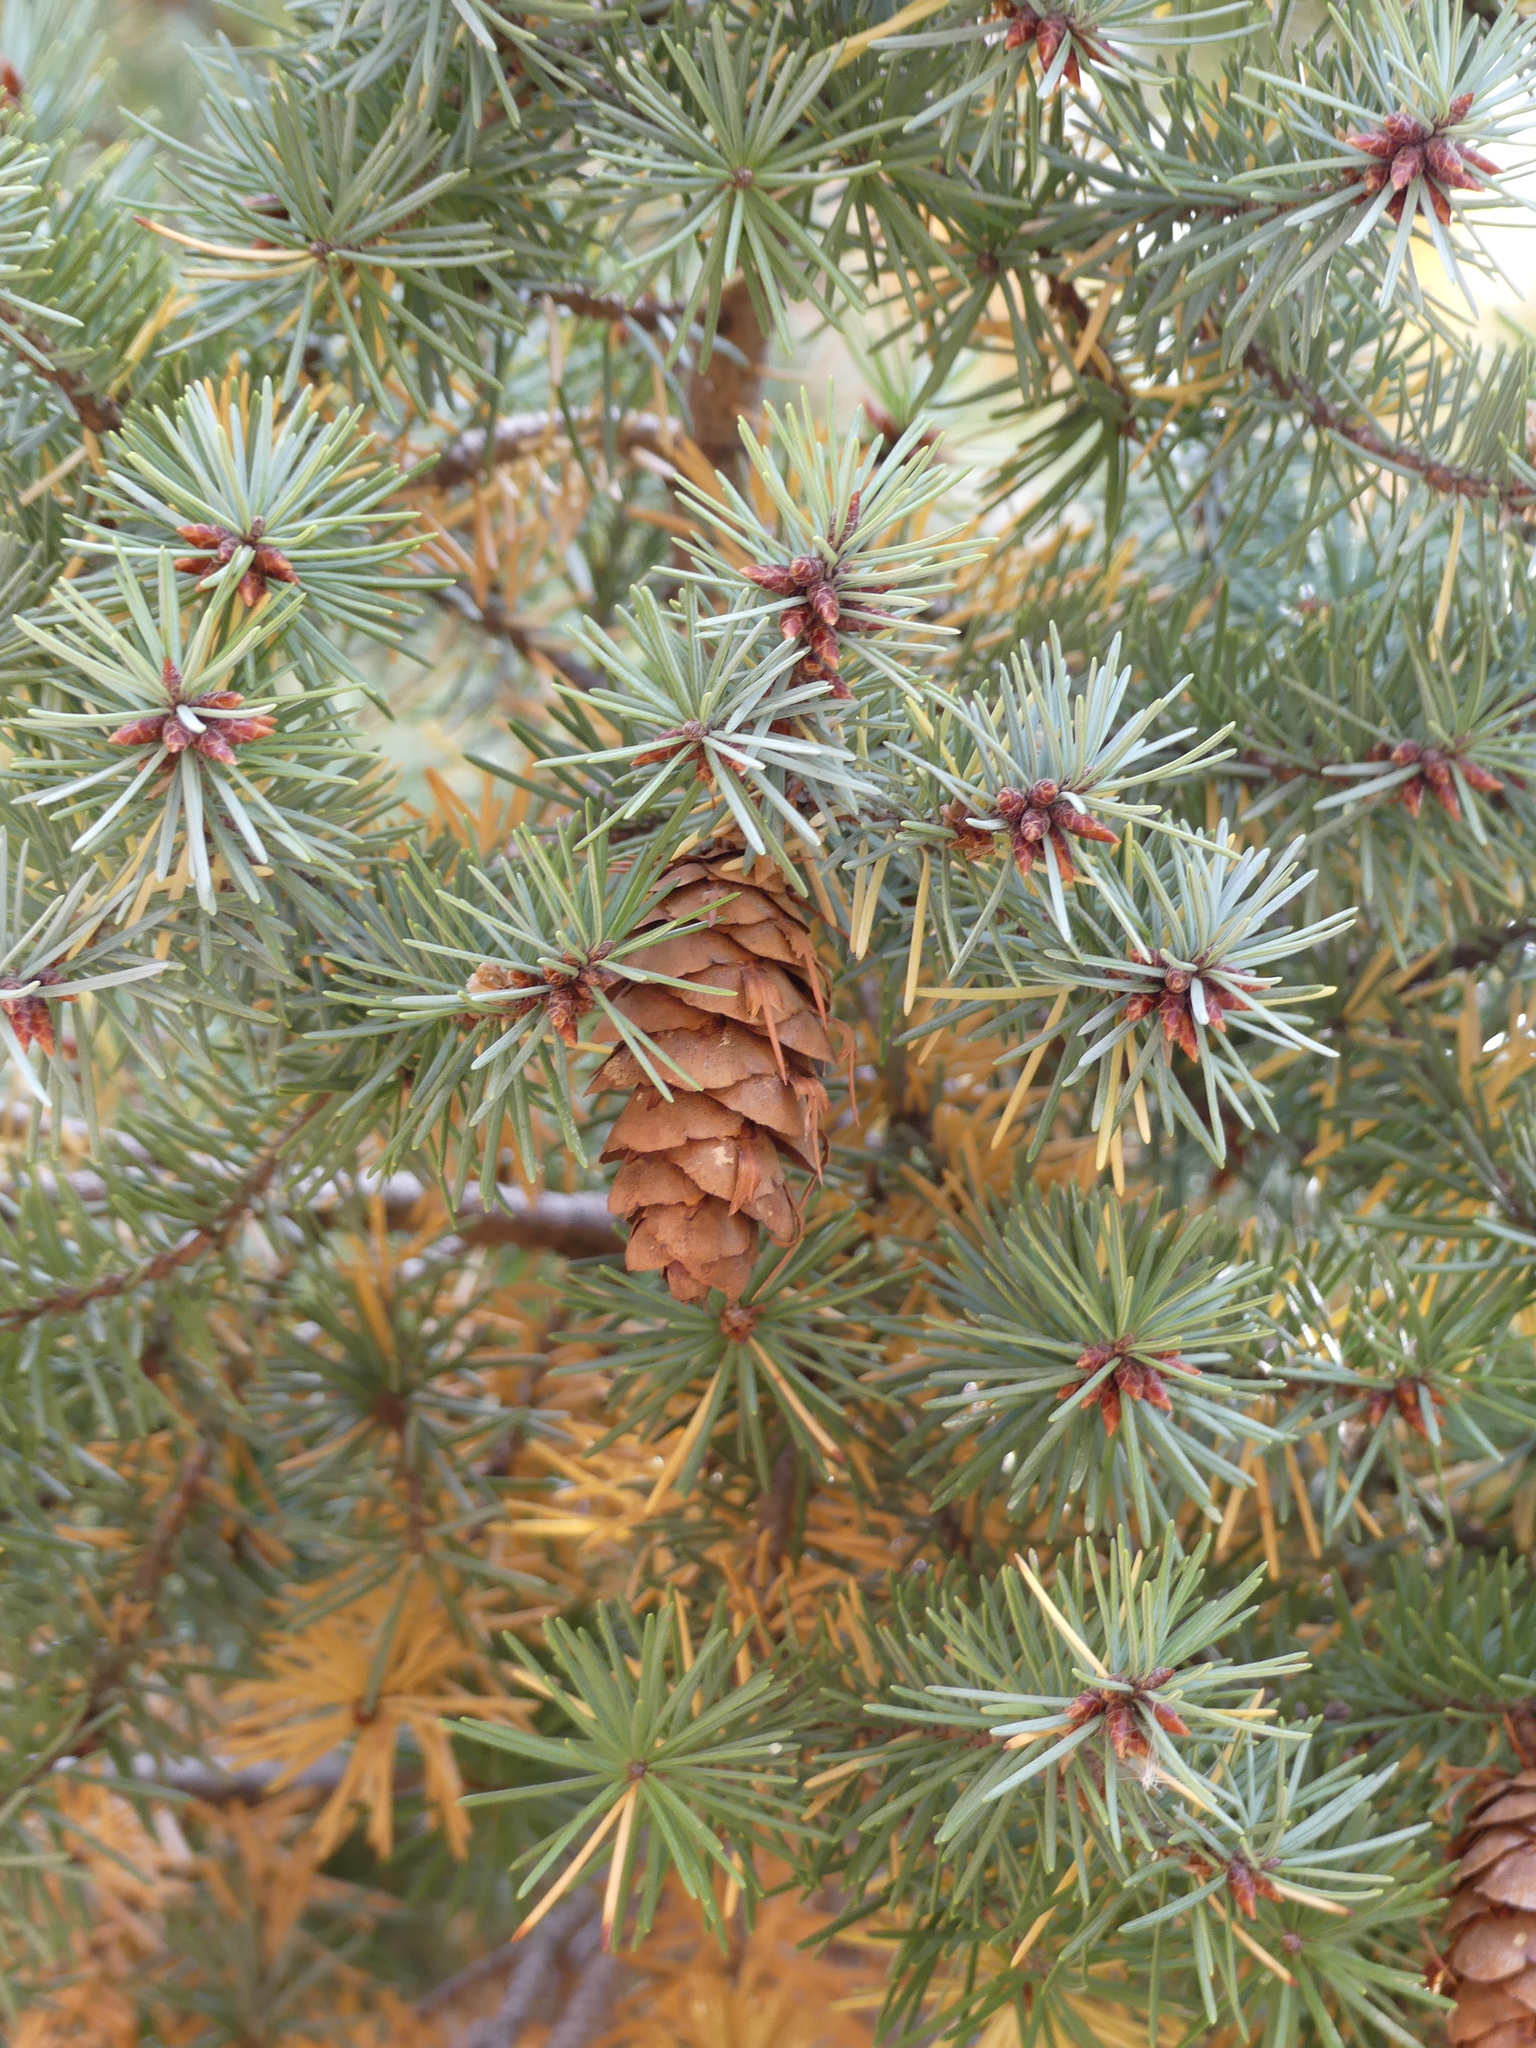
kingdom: Plantae
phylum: Tracheophyta
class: Pinopsida
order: Pinales
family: Pinaceae
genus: Pseudotsuga
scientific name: Pseudotsuga menziesii
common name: Douglas fir
